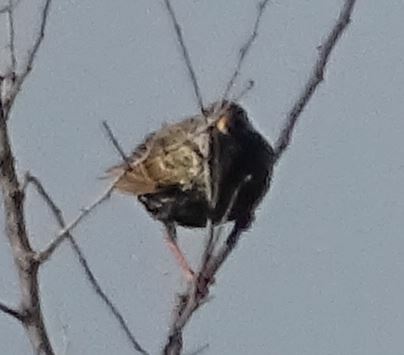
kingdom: Animalia
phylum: Chordata
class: Aves
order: Passeriformes
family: Sturnidae
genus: Sturnus
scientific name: Sturnus vulgaris
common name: Common starling
